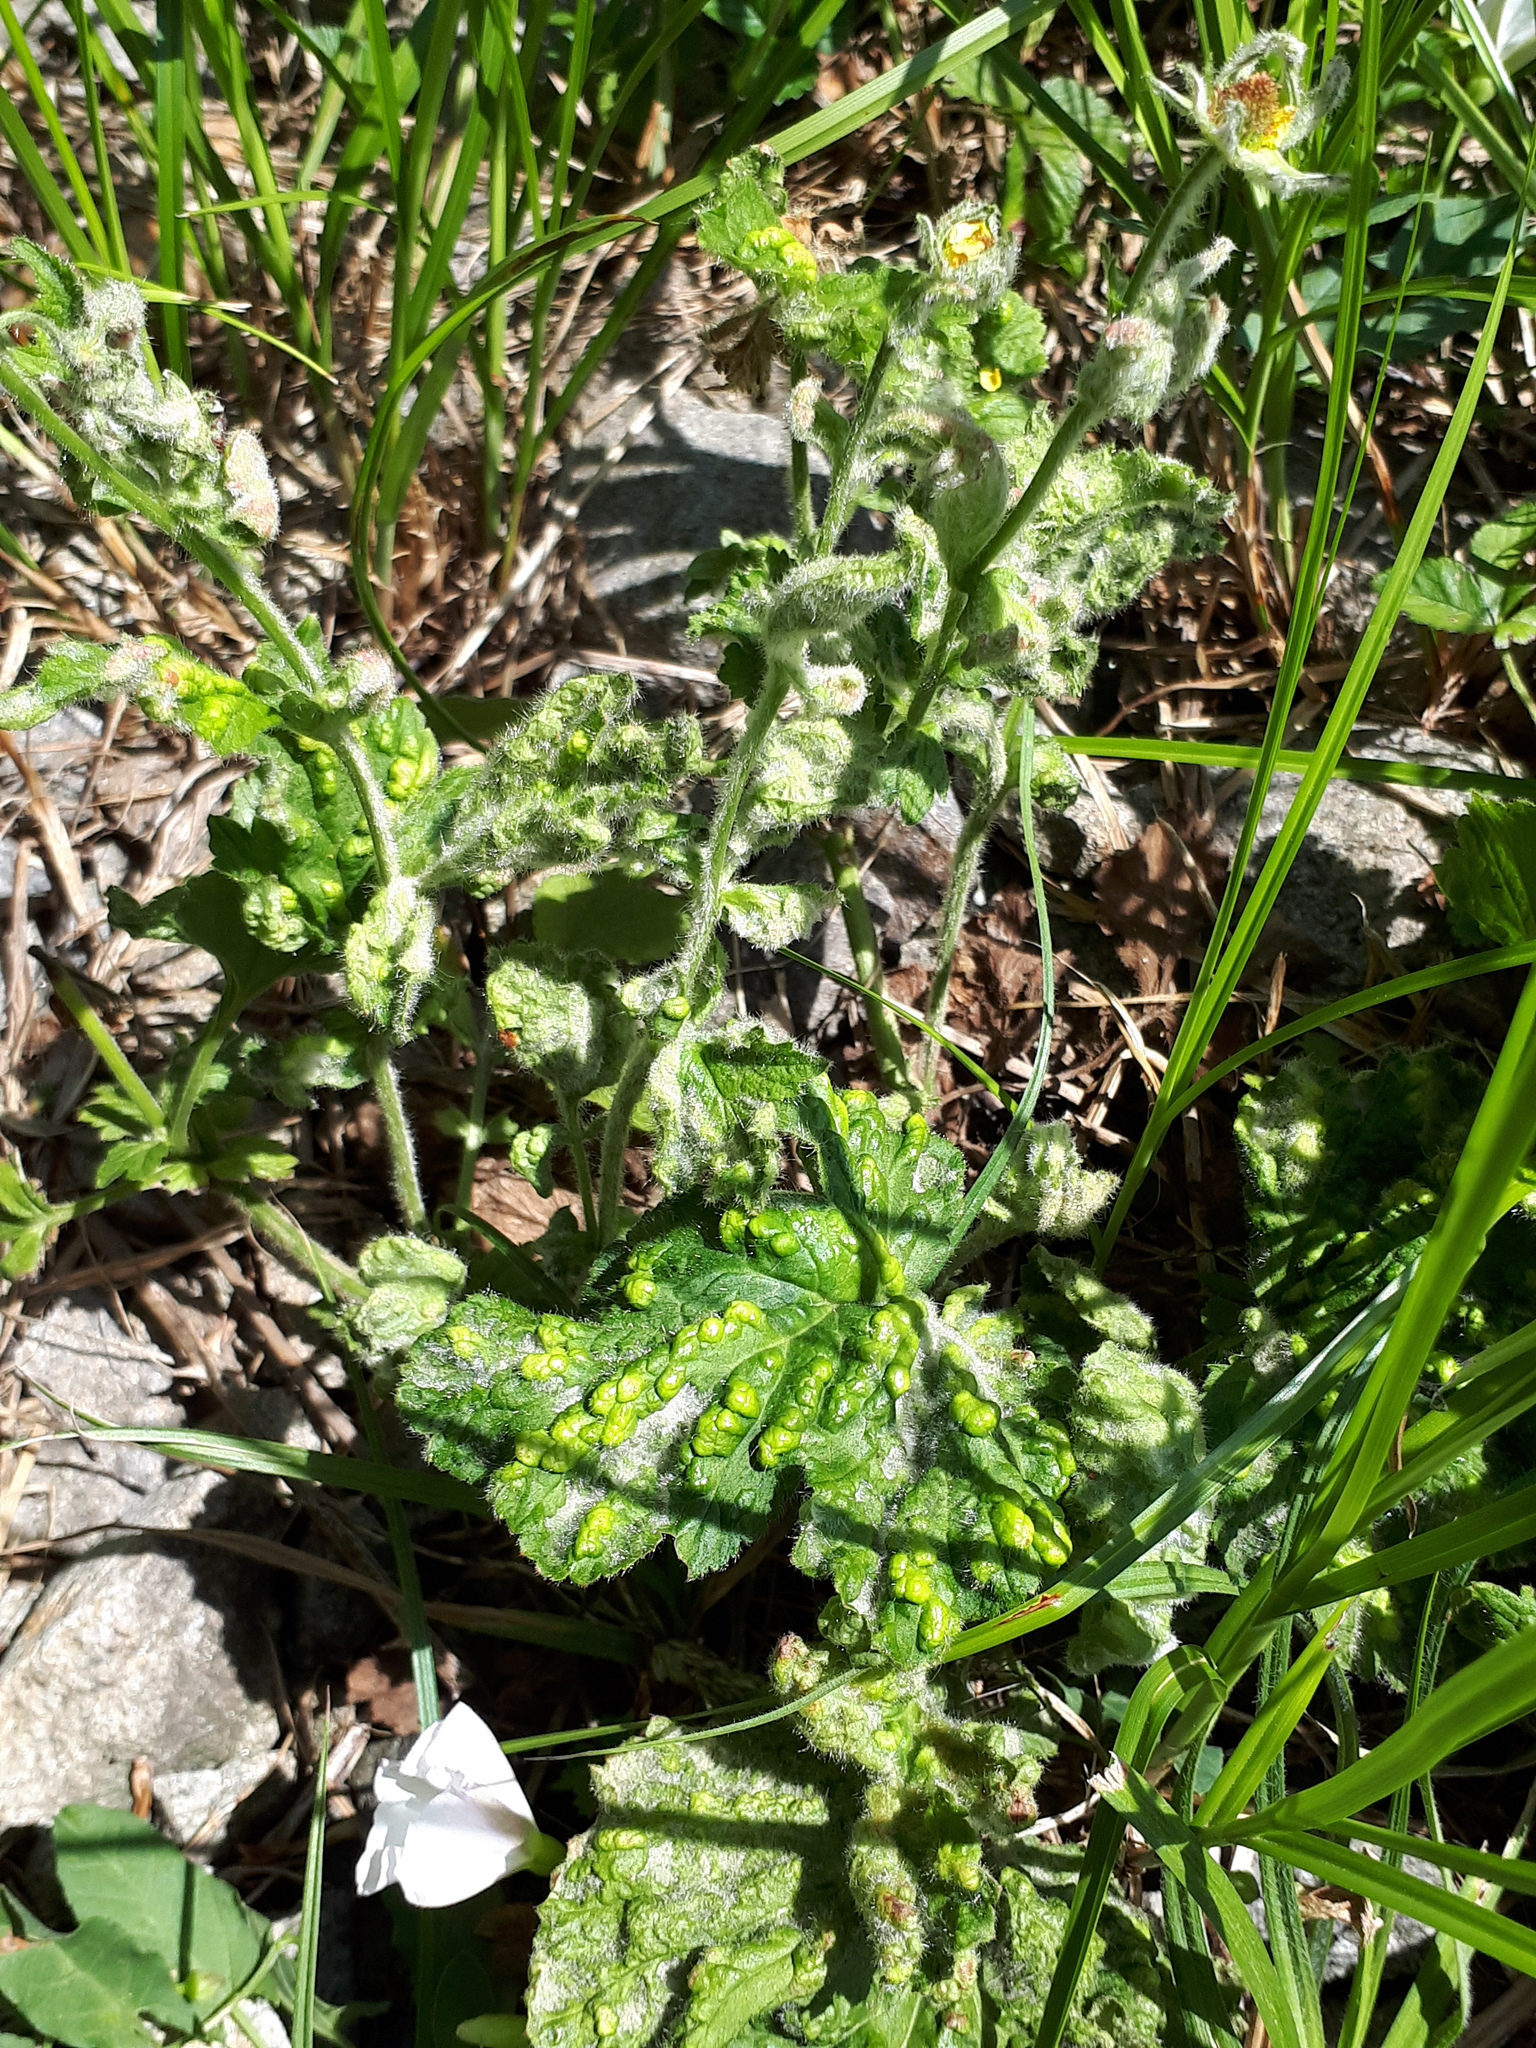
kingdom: Animalia
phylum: Arthropoda
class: Arachnida
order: Trombidiformes
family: Eriophyidae
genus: Cecidophyes
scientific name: Cecidophyes nudus
